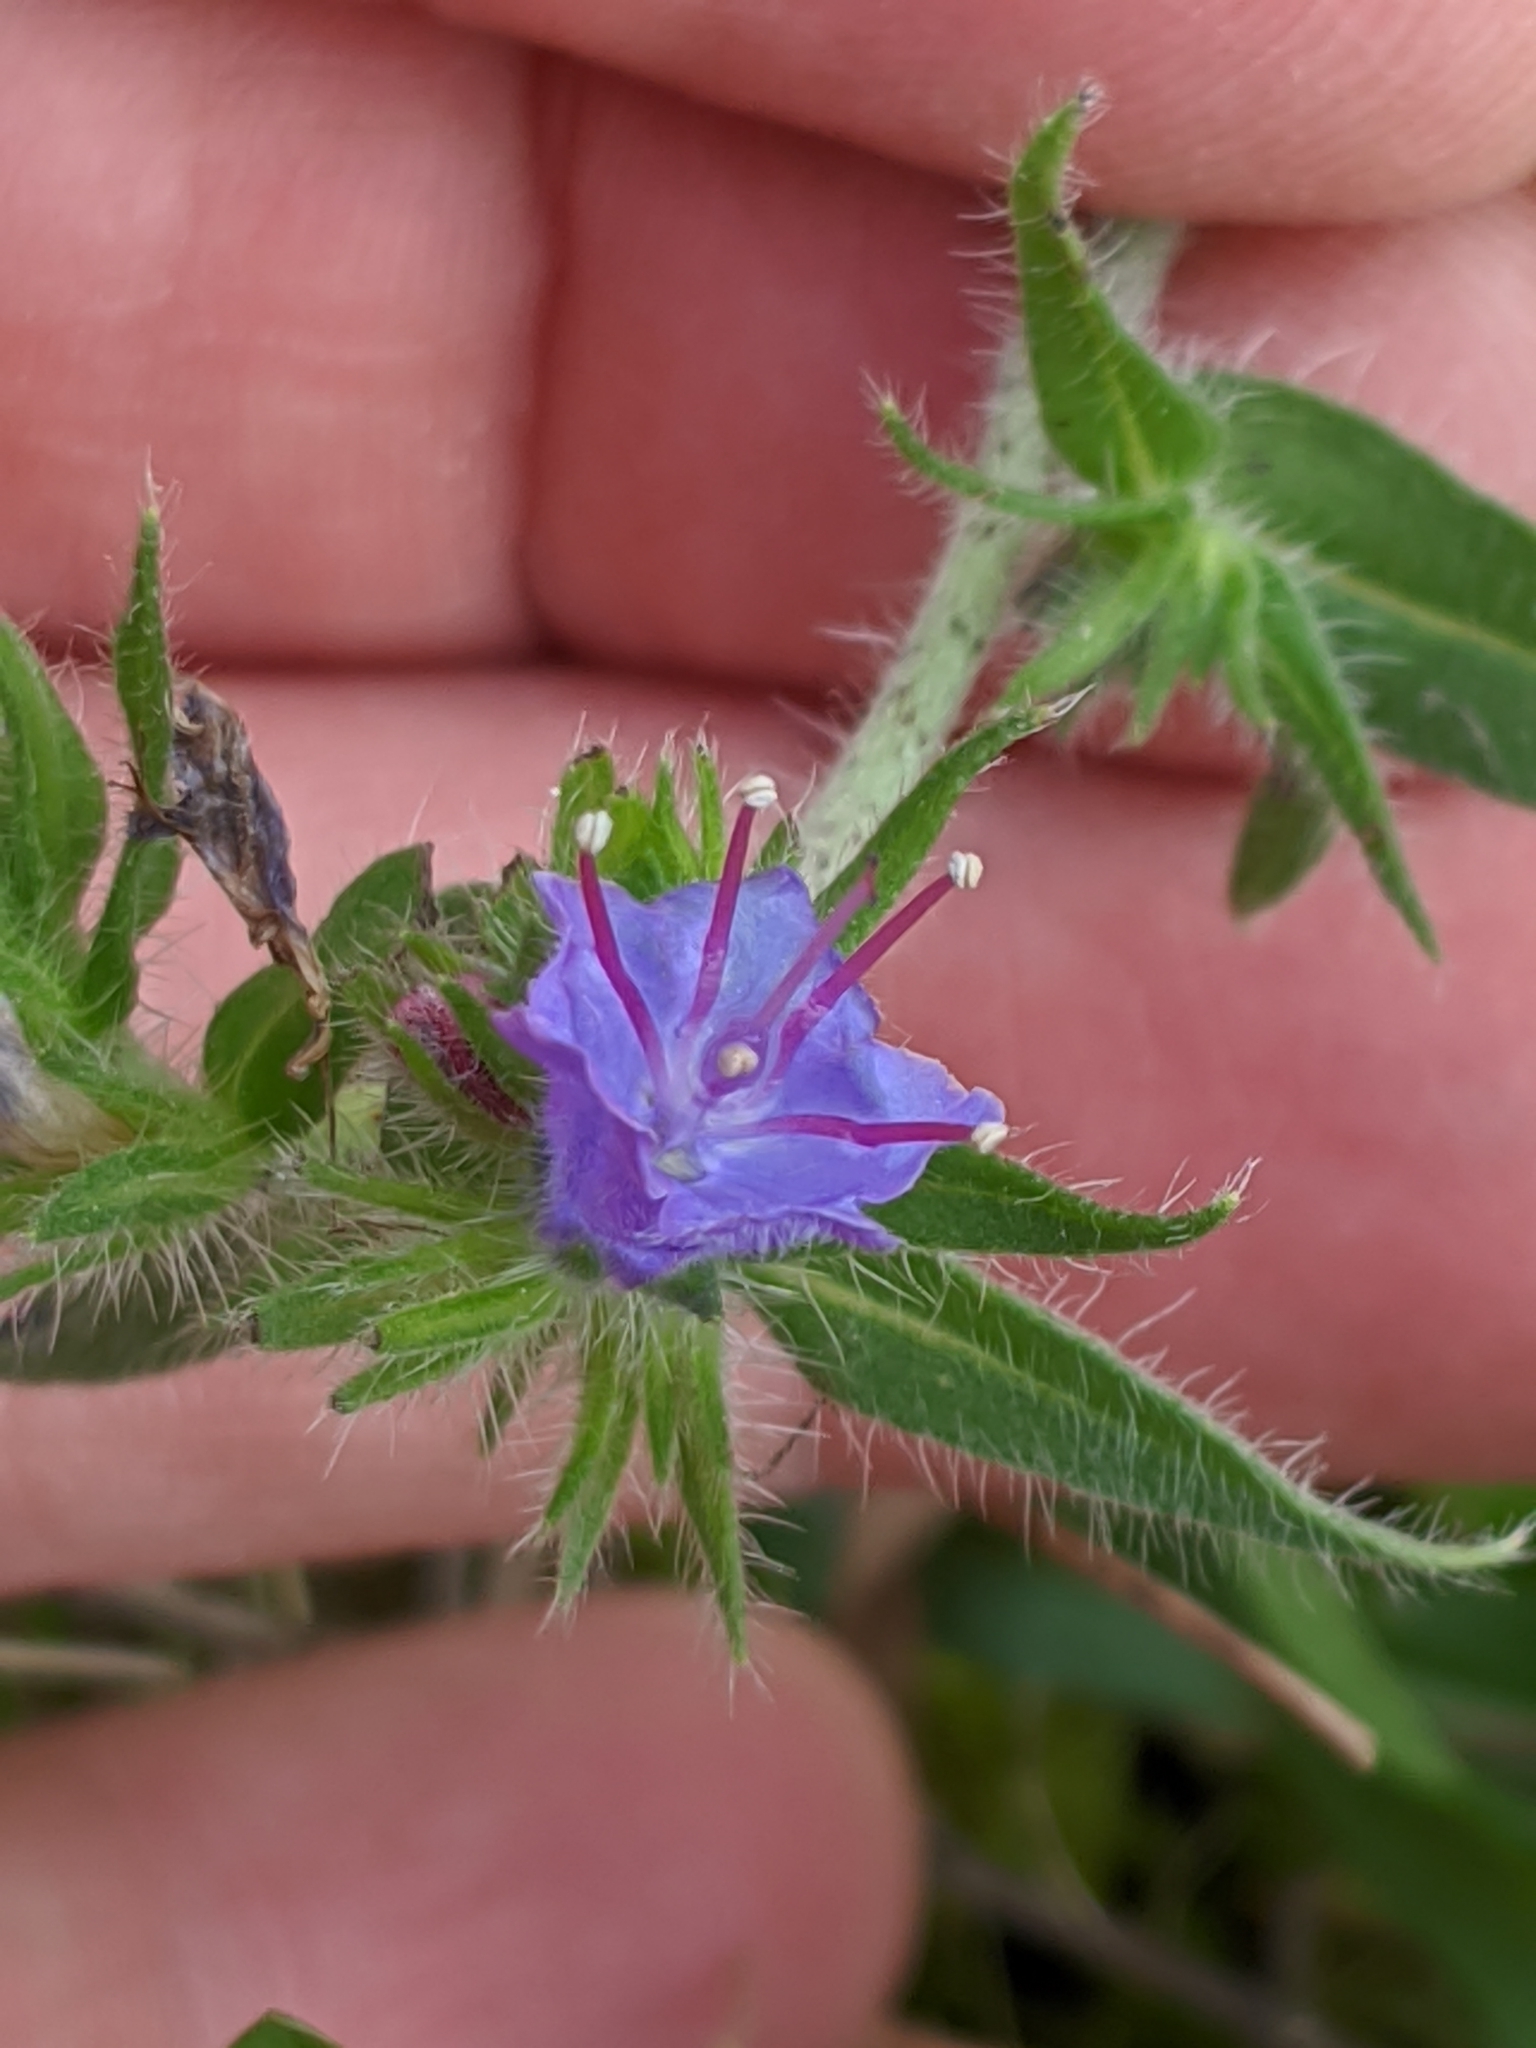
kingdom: Plantae
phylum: Tracheophyta
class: Magnoliopsida
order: Boraginales
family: Boraginaceae
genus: Echium
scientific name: Echium vulgare
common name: Common viper's bugloss
